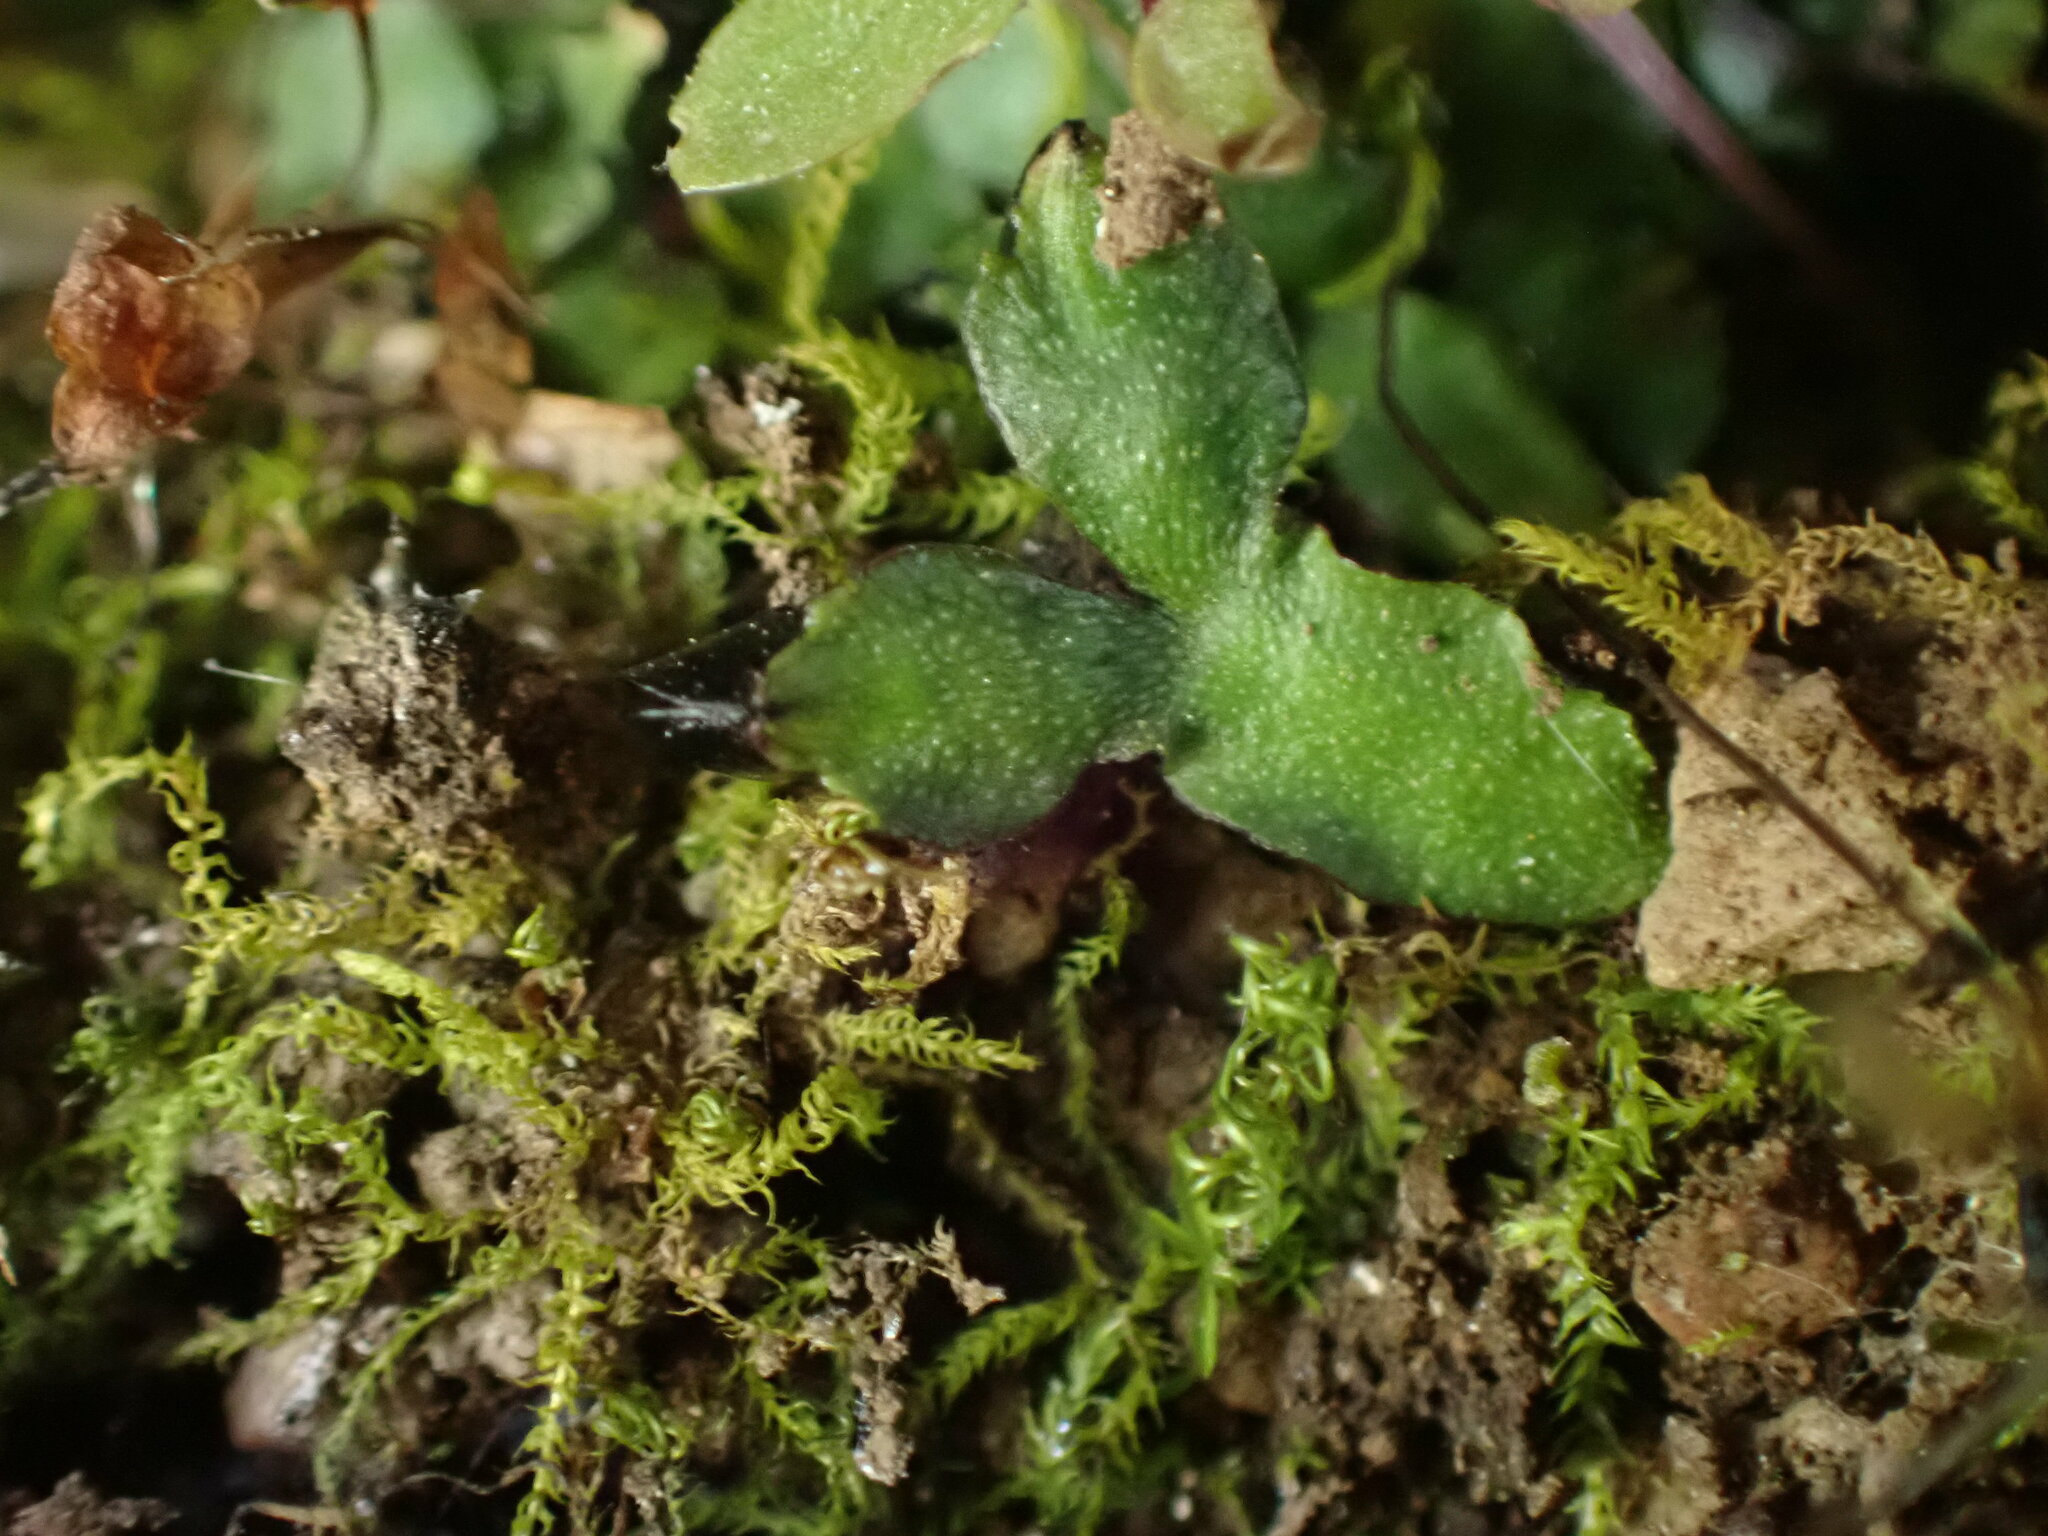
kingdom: Plantae
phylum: Marchantiophyta
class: Marchantiopsida
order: Marchantiales
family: Targioniaceae
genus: Targionia
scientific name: Targionia hypophylla
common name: Orobus-seed liverwort
